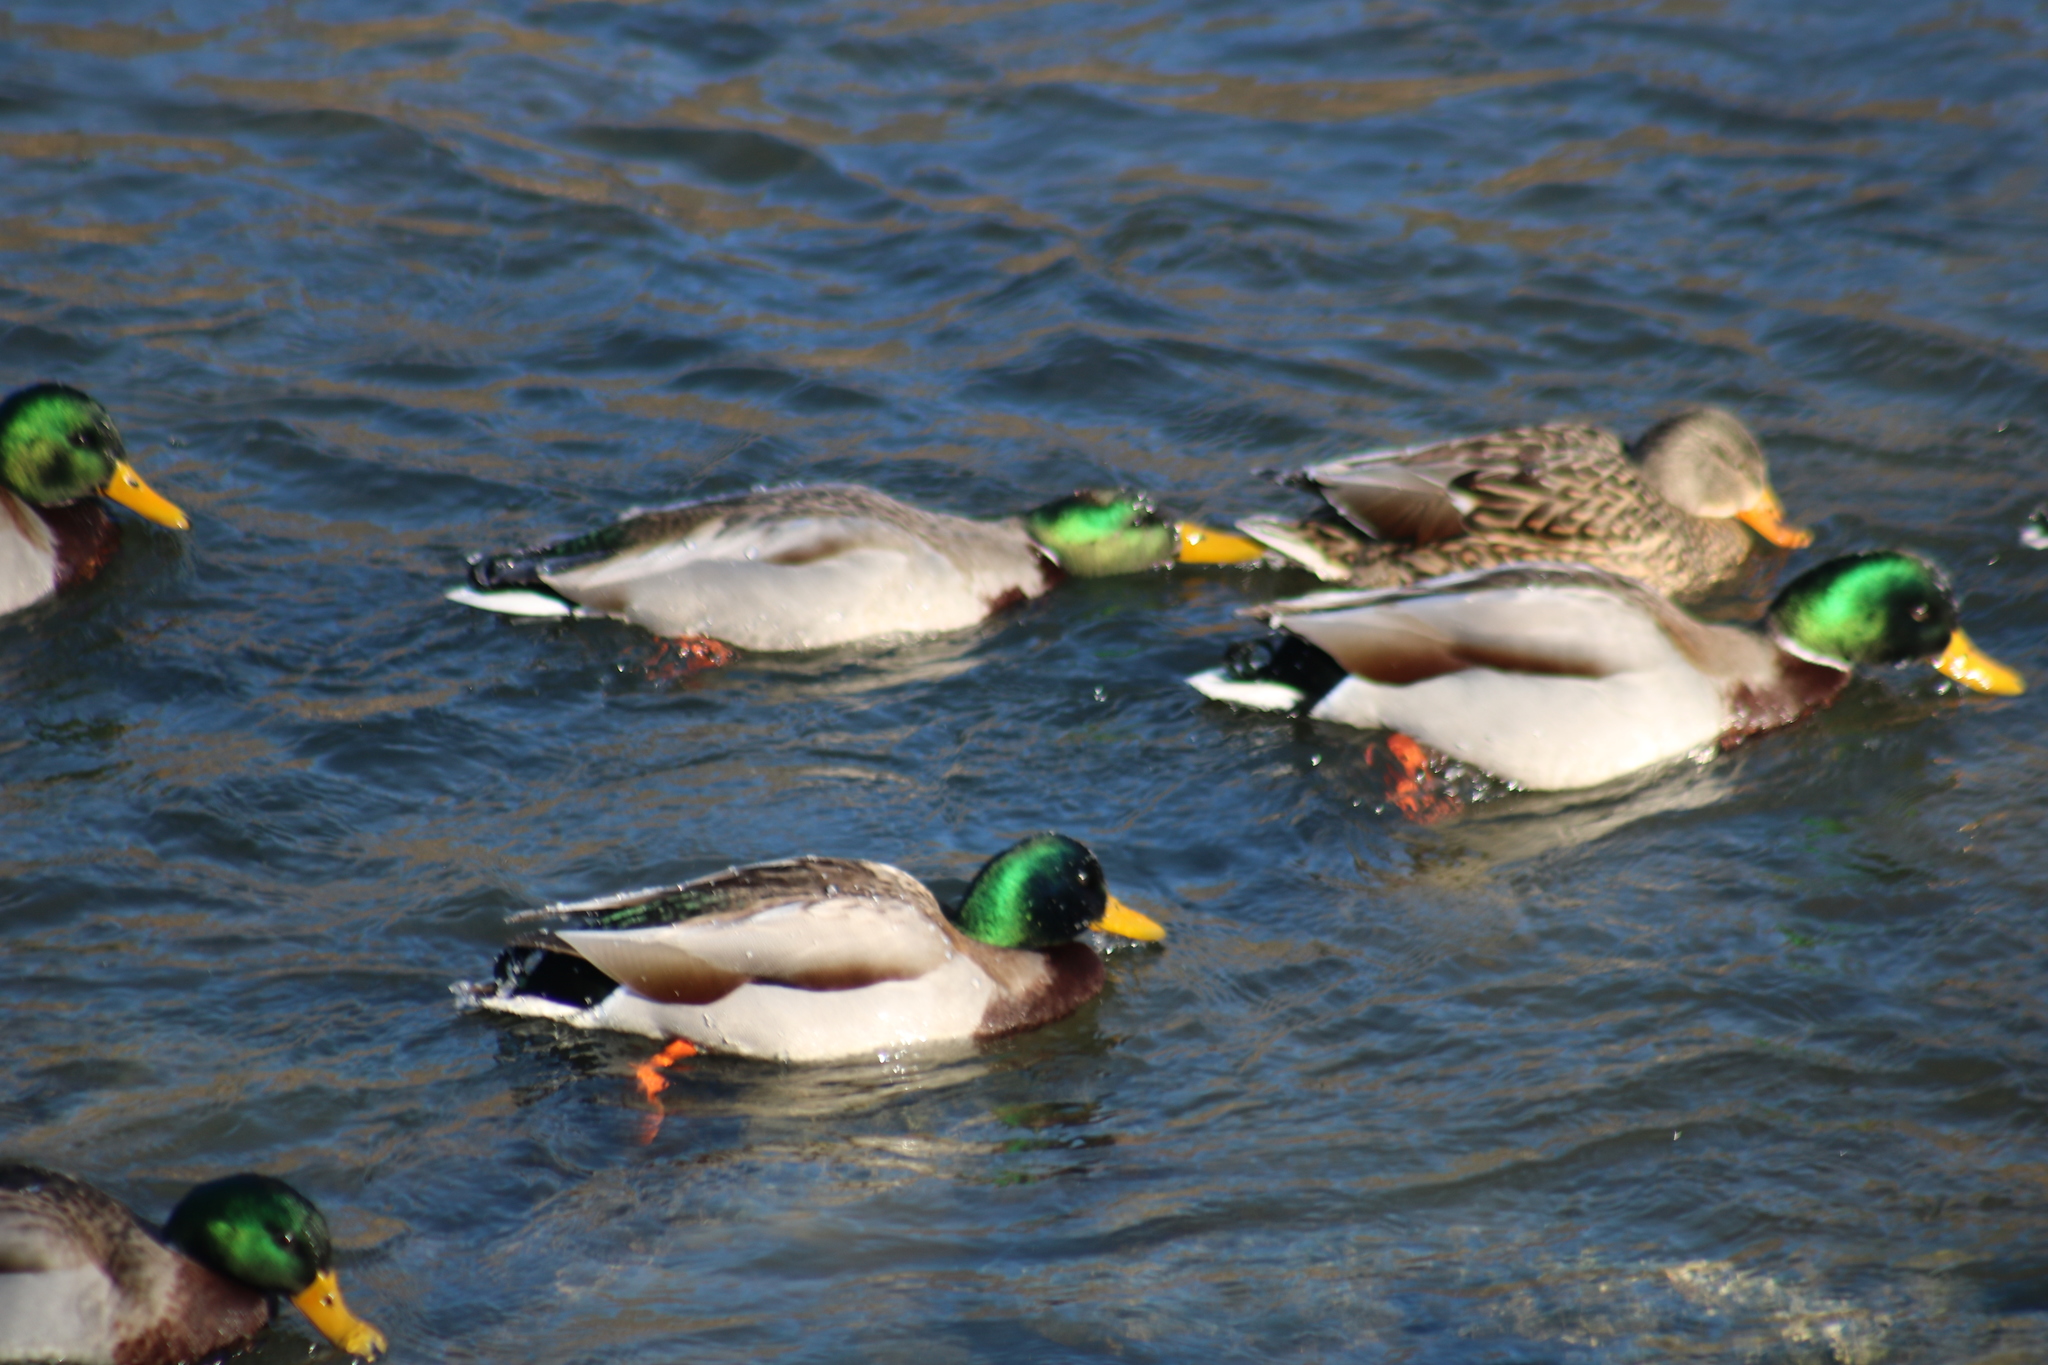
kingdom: Animalia
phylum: Chordata
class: Aves
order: Anseriformes
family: Anatidae
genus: Anas
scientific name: Anas platyrhynchos
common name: Mallard
